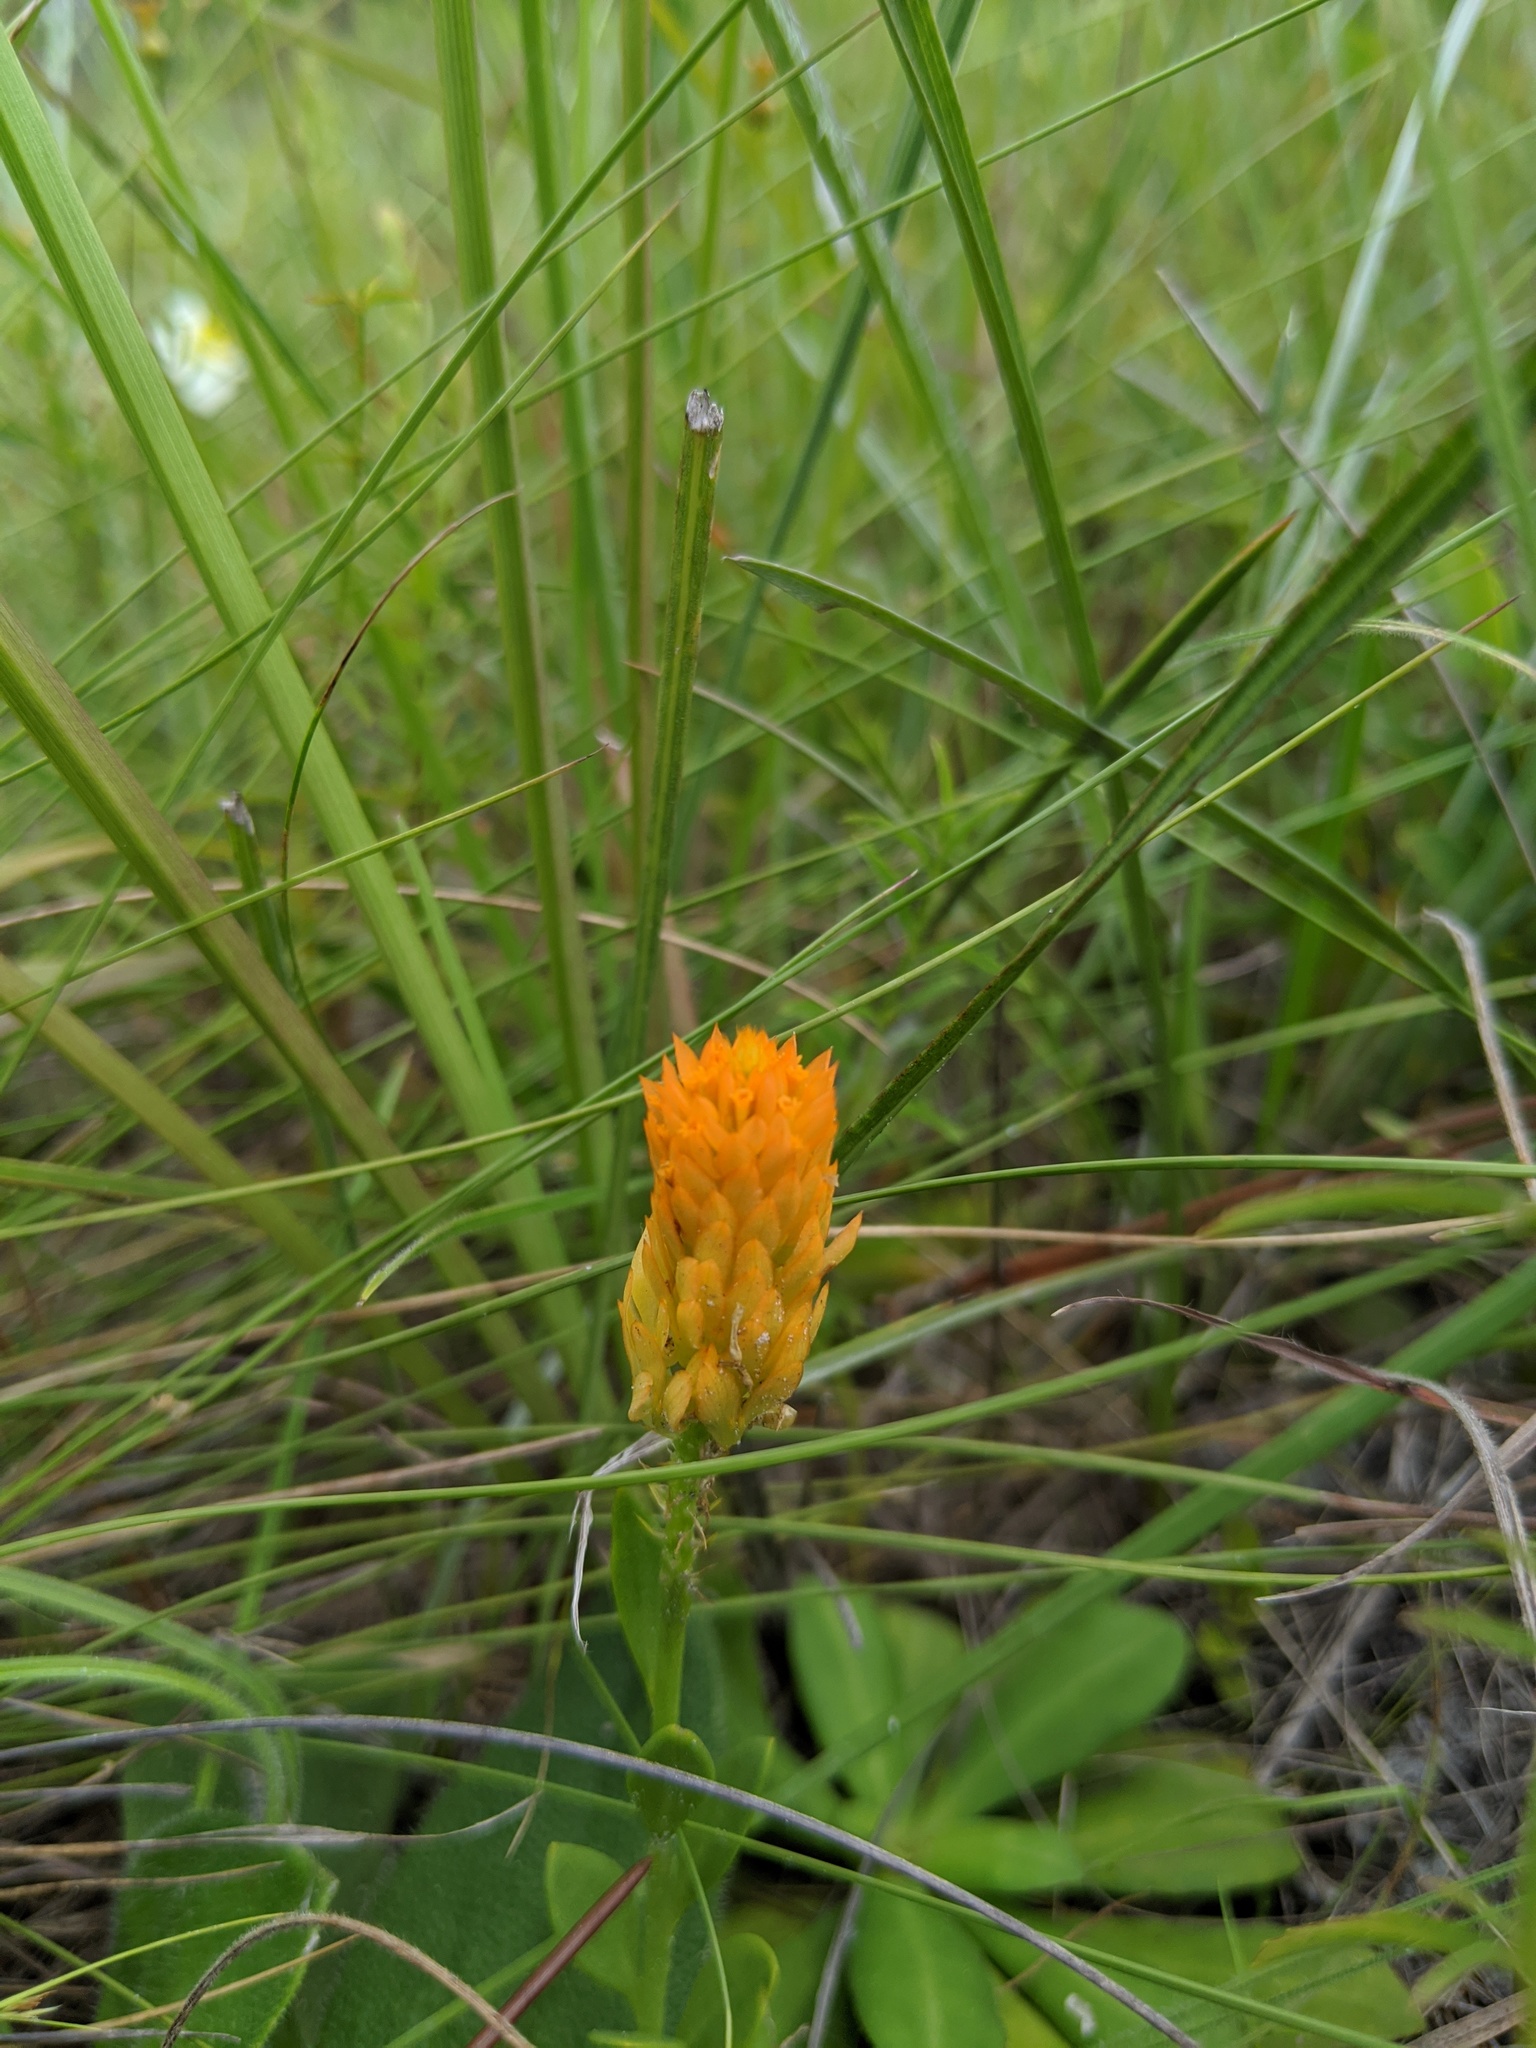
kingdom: Plantae
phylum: Tracheophyta
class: Magnoliopsida
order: Fabales
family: Polygalaceae
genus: Polygala
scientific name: Polygala lutea
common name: Orange milkwort
